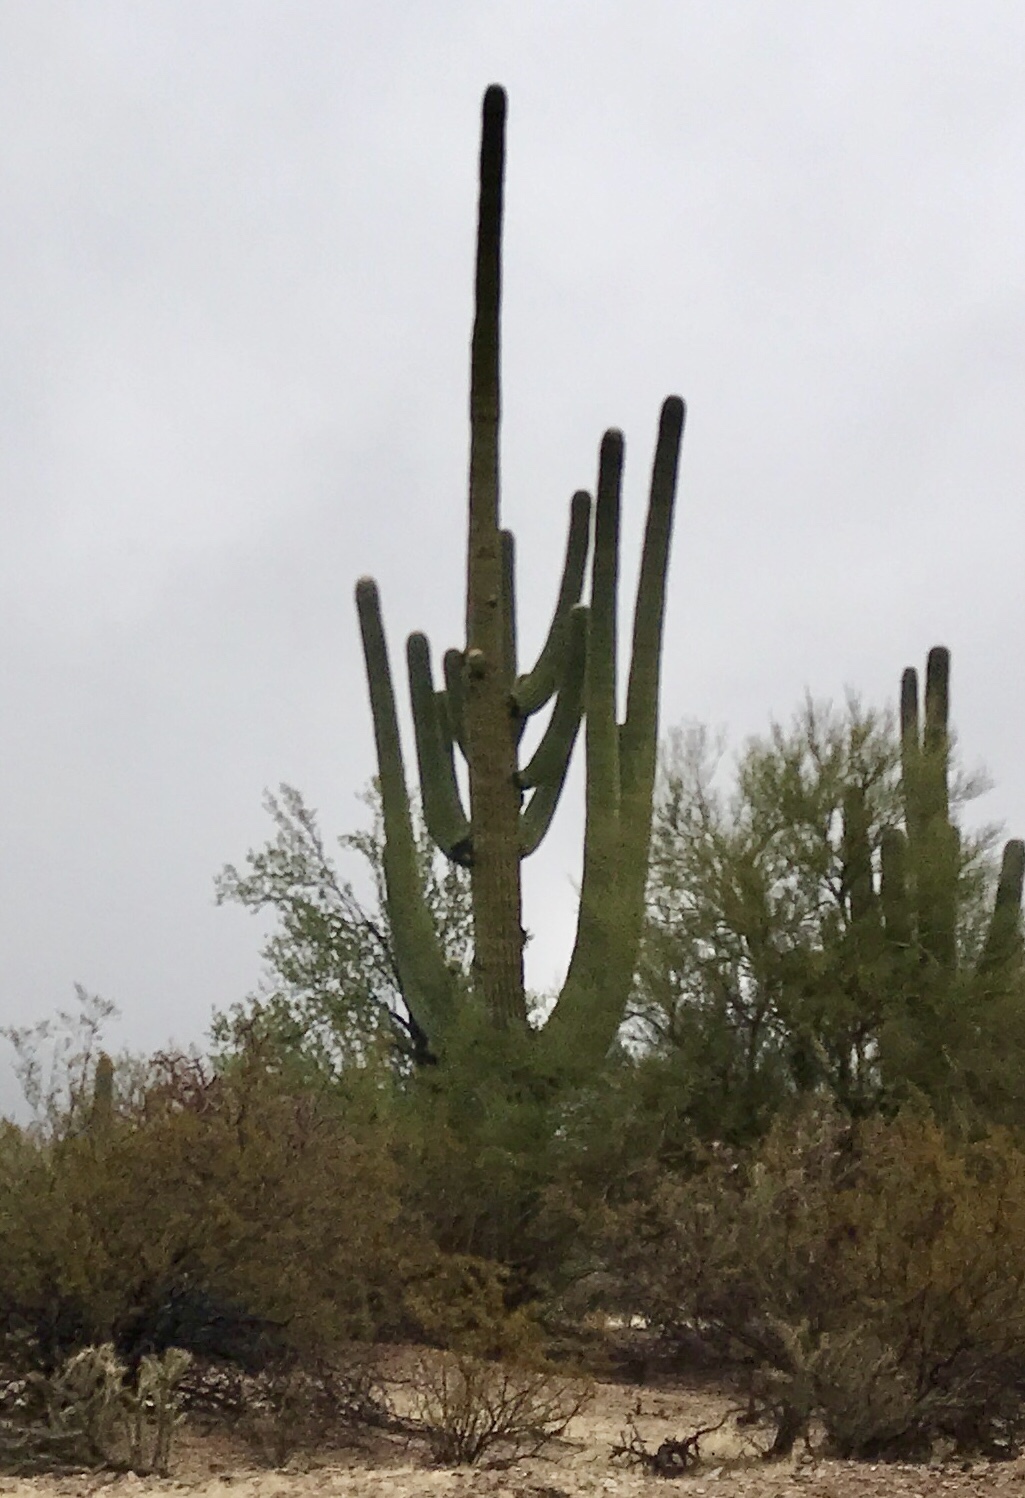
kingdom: Plantae
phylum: Tracheophyta
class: Magnoliopsida
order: Caryophyllales
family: Cactaceae
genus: Carnegiea
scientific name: Carnegiea gigantea
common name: Saguaro
